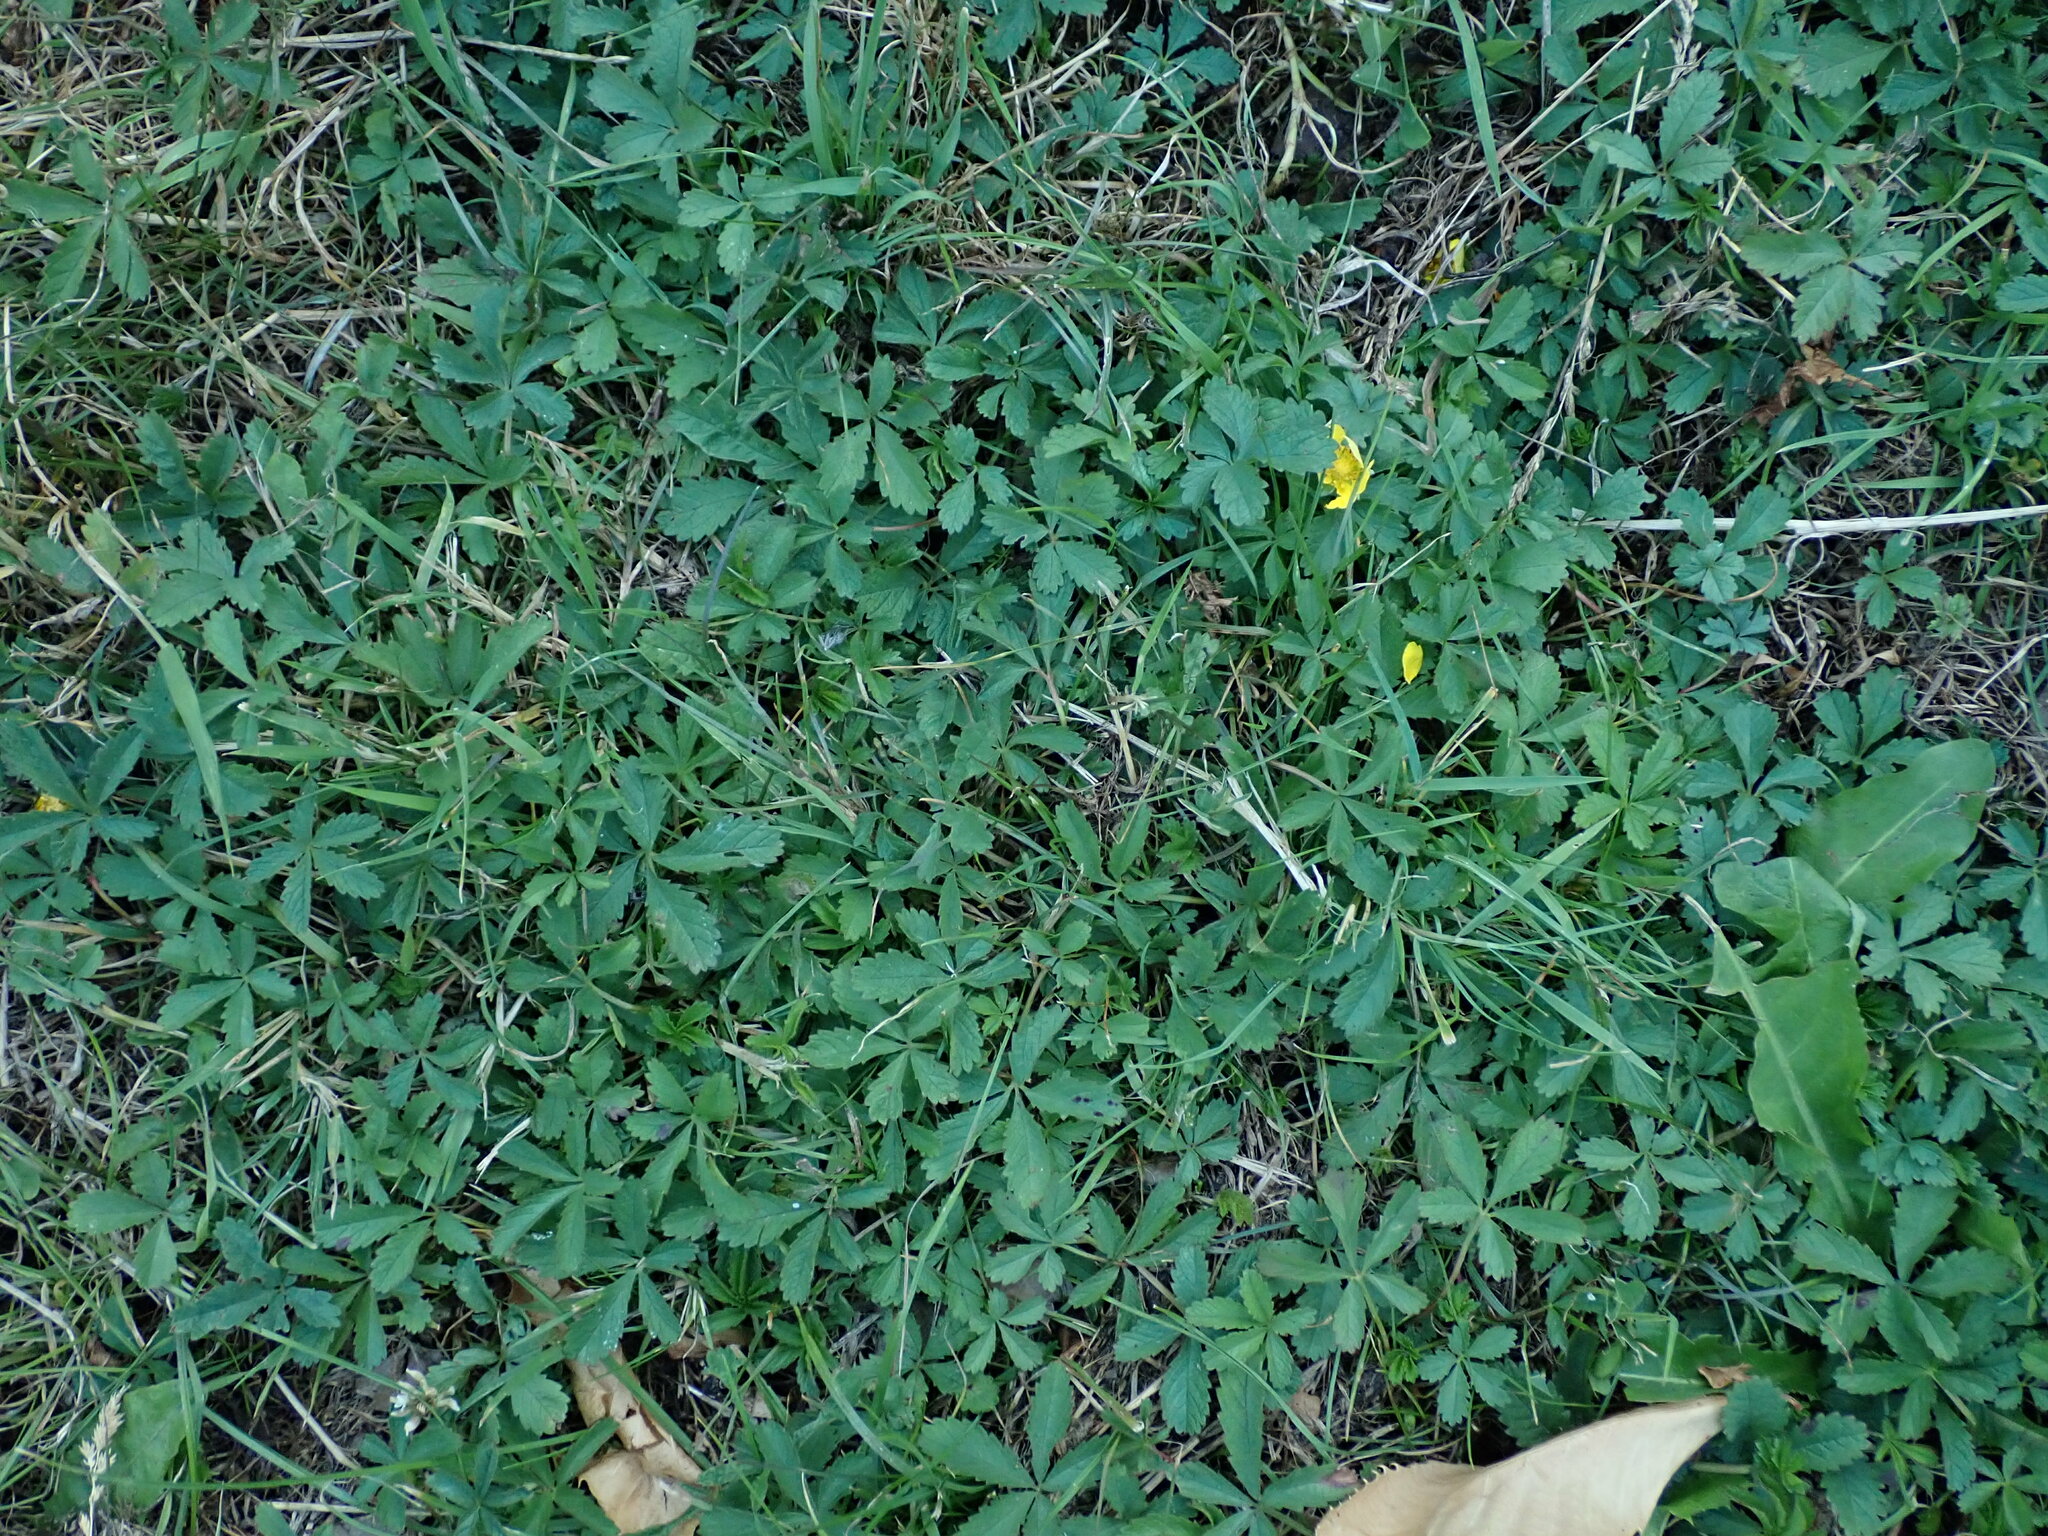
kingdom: Plantae
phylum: Tracheophyta
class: Magnoliopsida
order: Rosales
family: Rosaceae
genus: Potentilla
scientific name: Potentilla reptans
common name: Creeping cinquefoil
